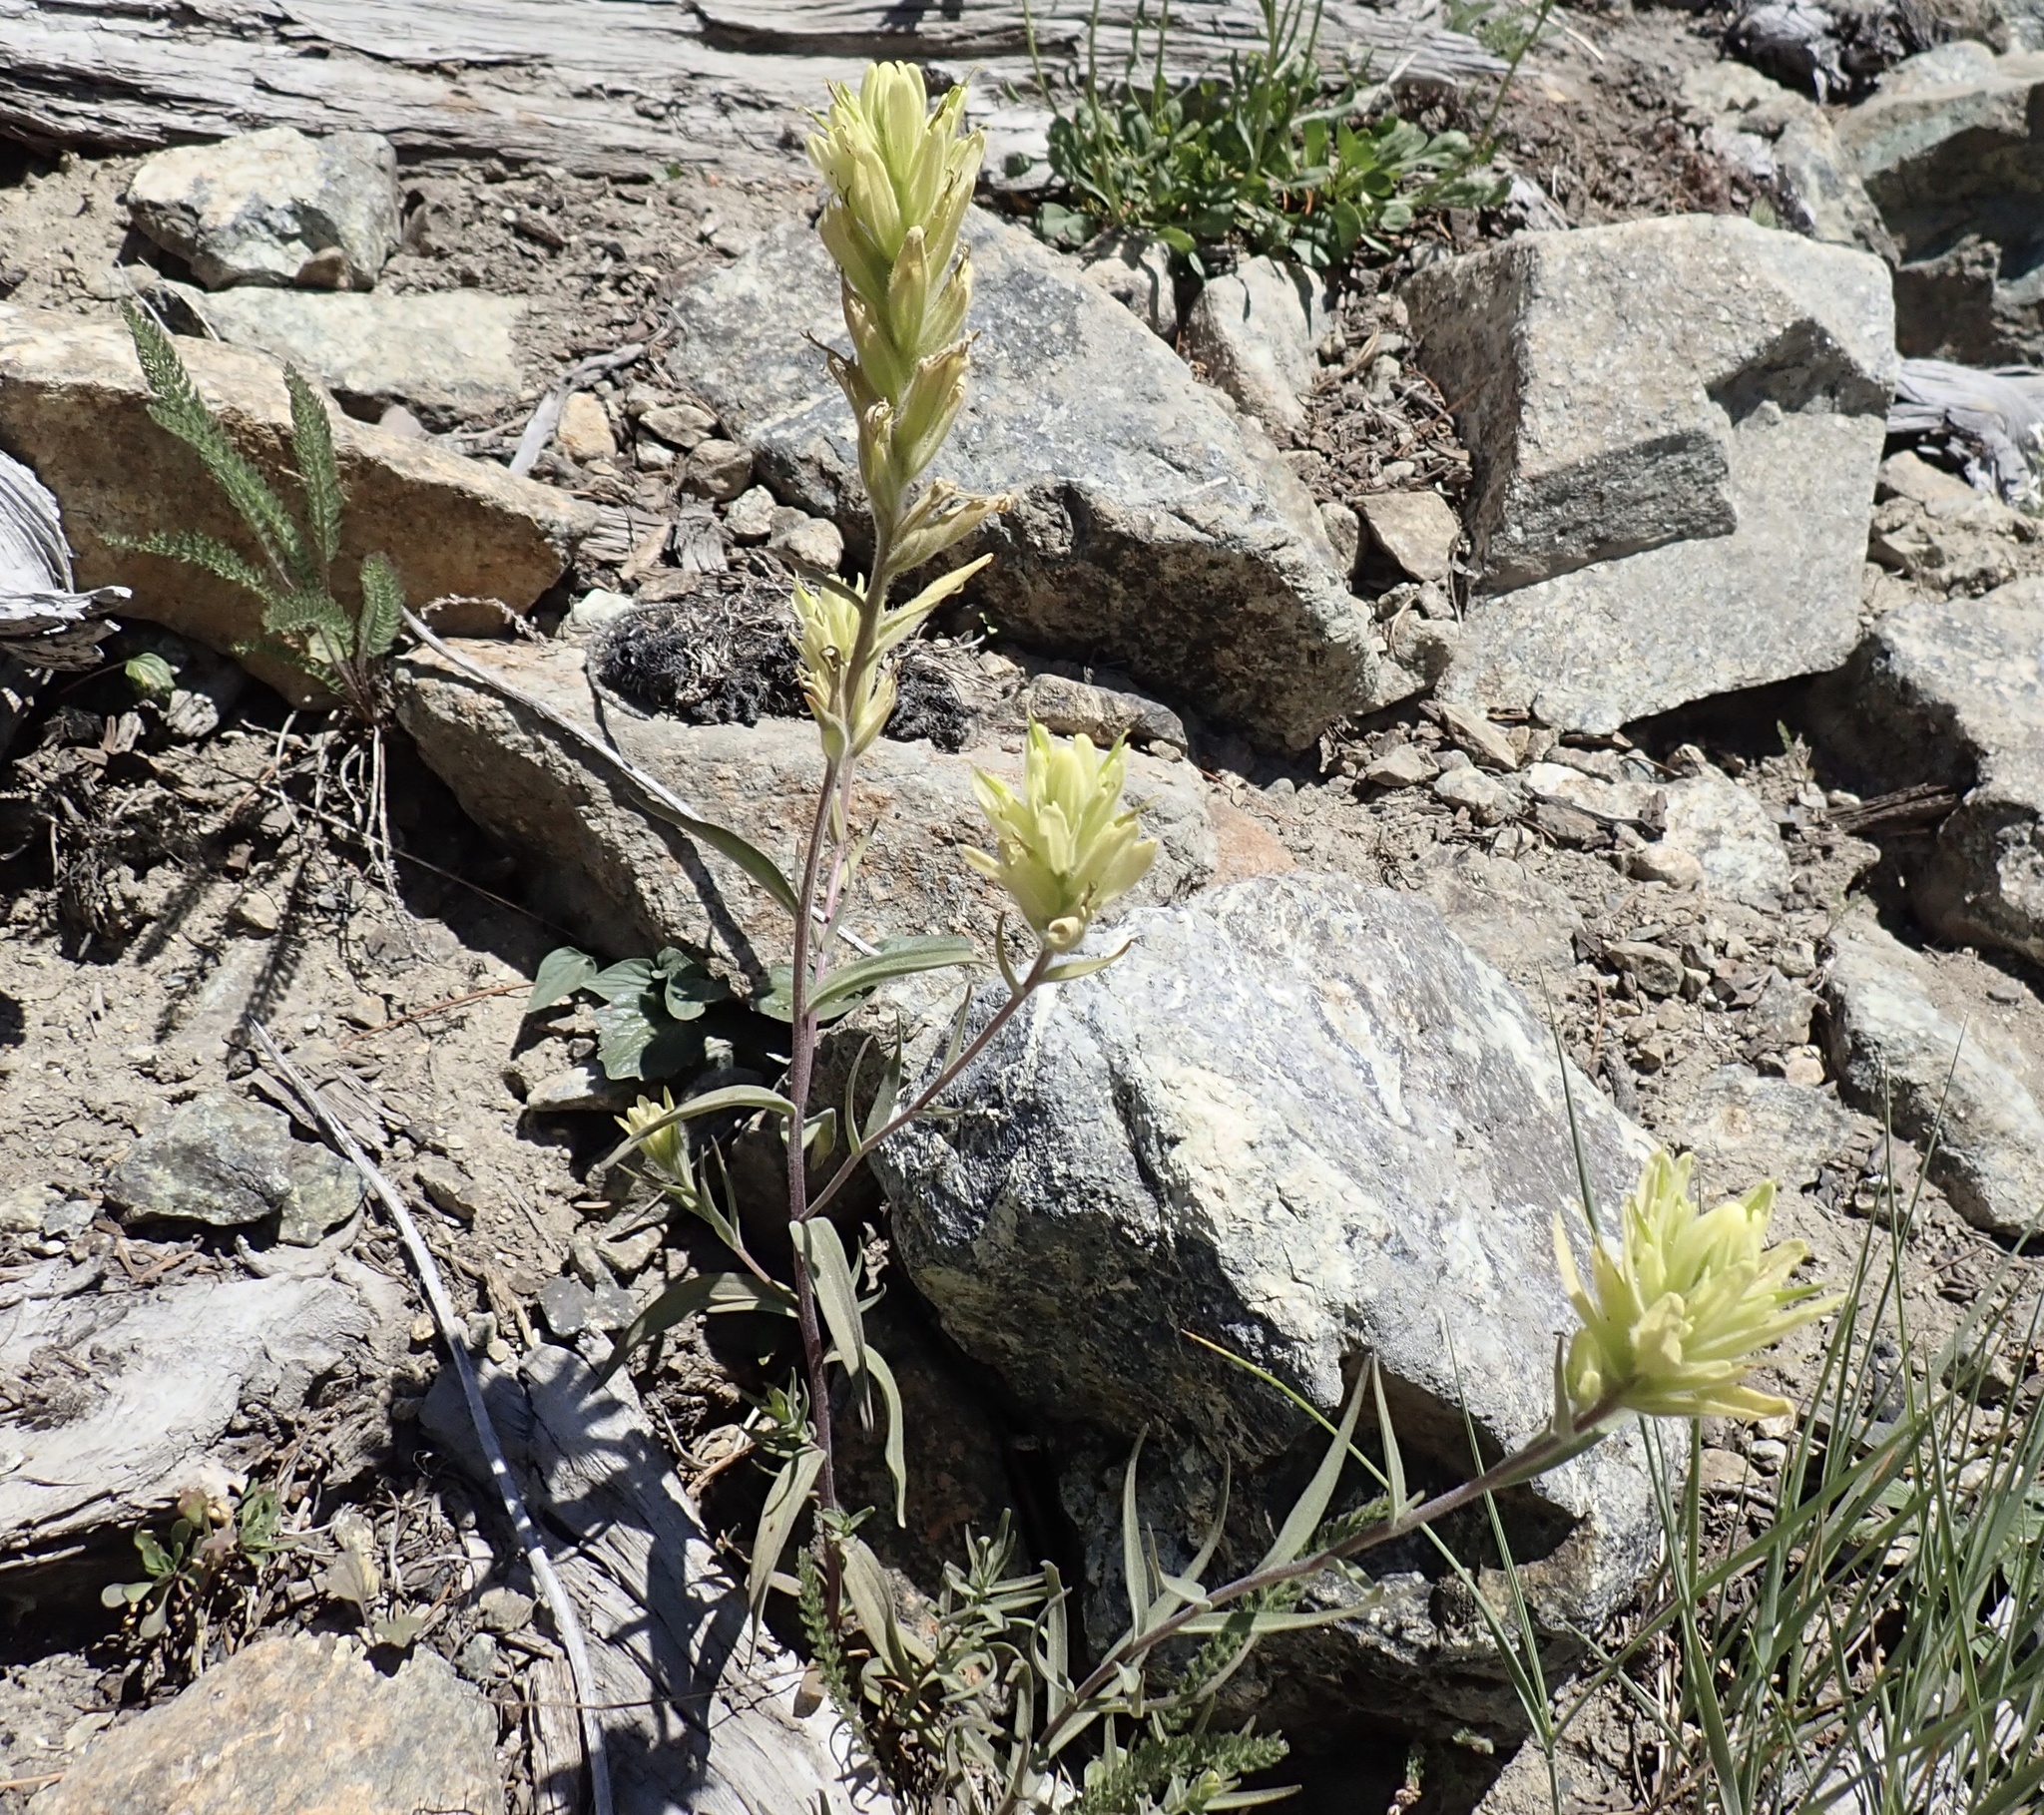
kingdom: Plantae
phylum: Tracheophyta
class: Magnoliopsida
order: Lamiales
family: Orobanchaceae
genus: Castilleja
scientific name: Castilleja elmeri
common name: Elmer's paintbrush
